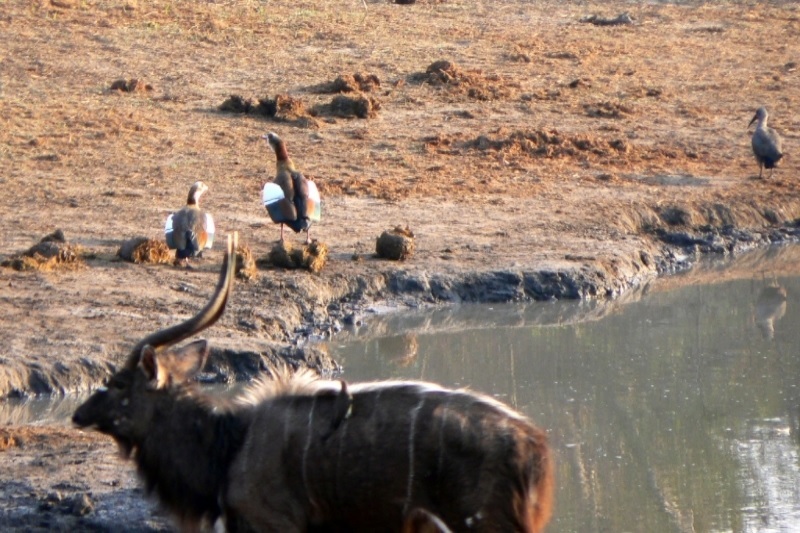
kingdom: Animalia
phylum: Chordata
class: Aves
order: Pelecaniformes
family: Threskiornithidae
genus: Bostrychia
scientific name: Bostrychia hagedash
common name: Hadada ibis
